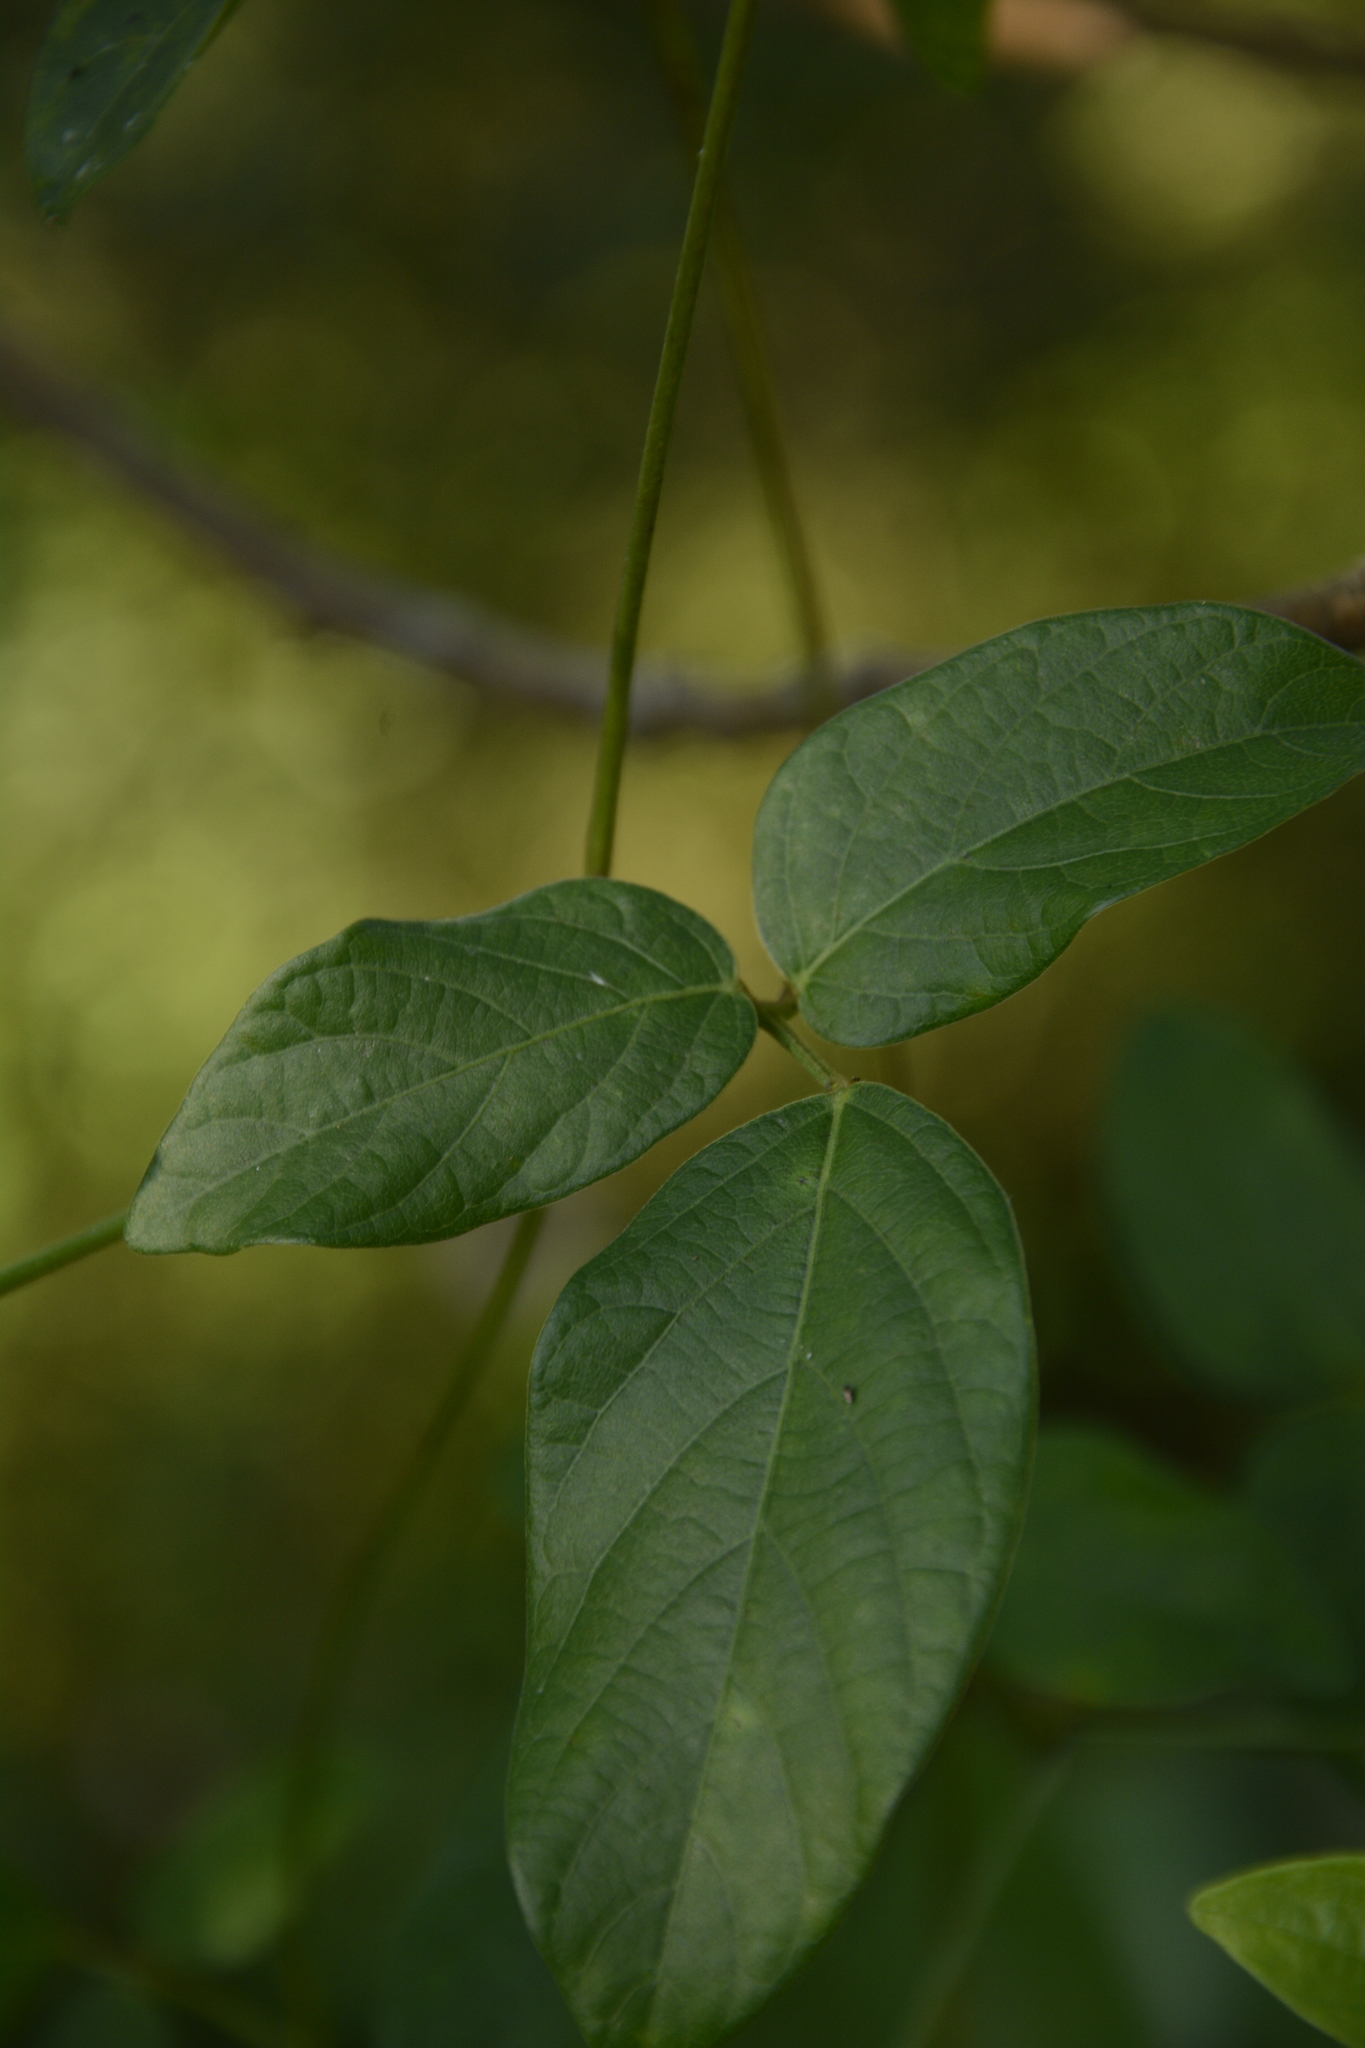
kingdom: Plantae
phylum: Tracheophyta
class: Magnoliopsida
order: Fabales
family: Fabaceae
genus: Centrosema
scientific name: Centrosema pubescens
